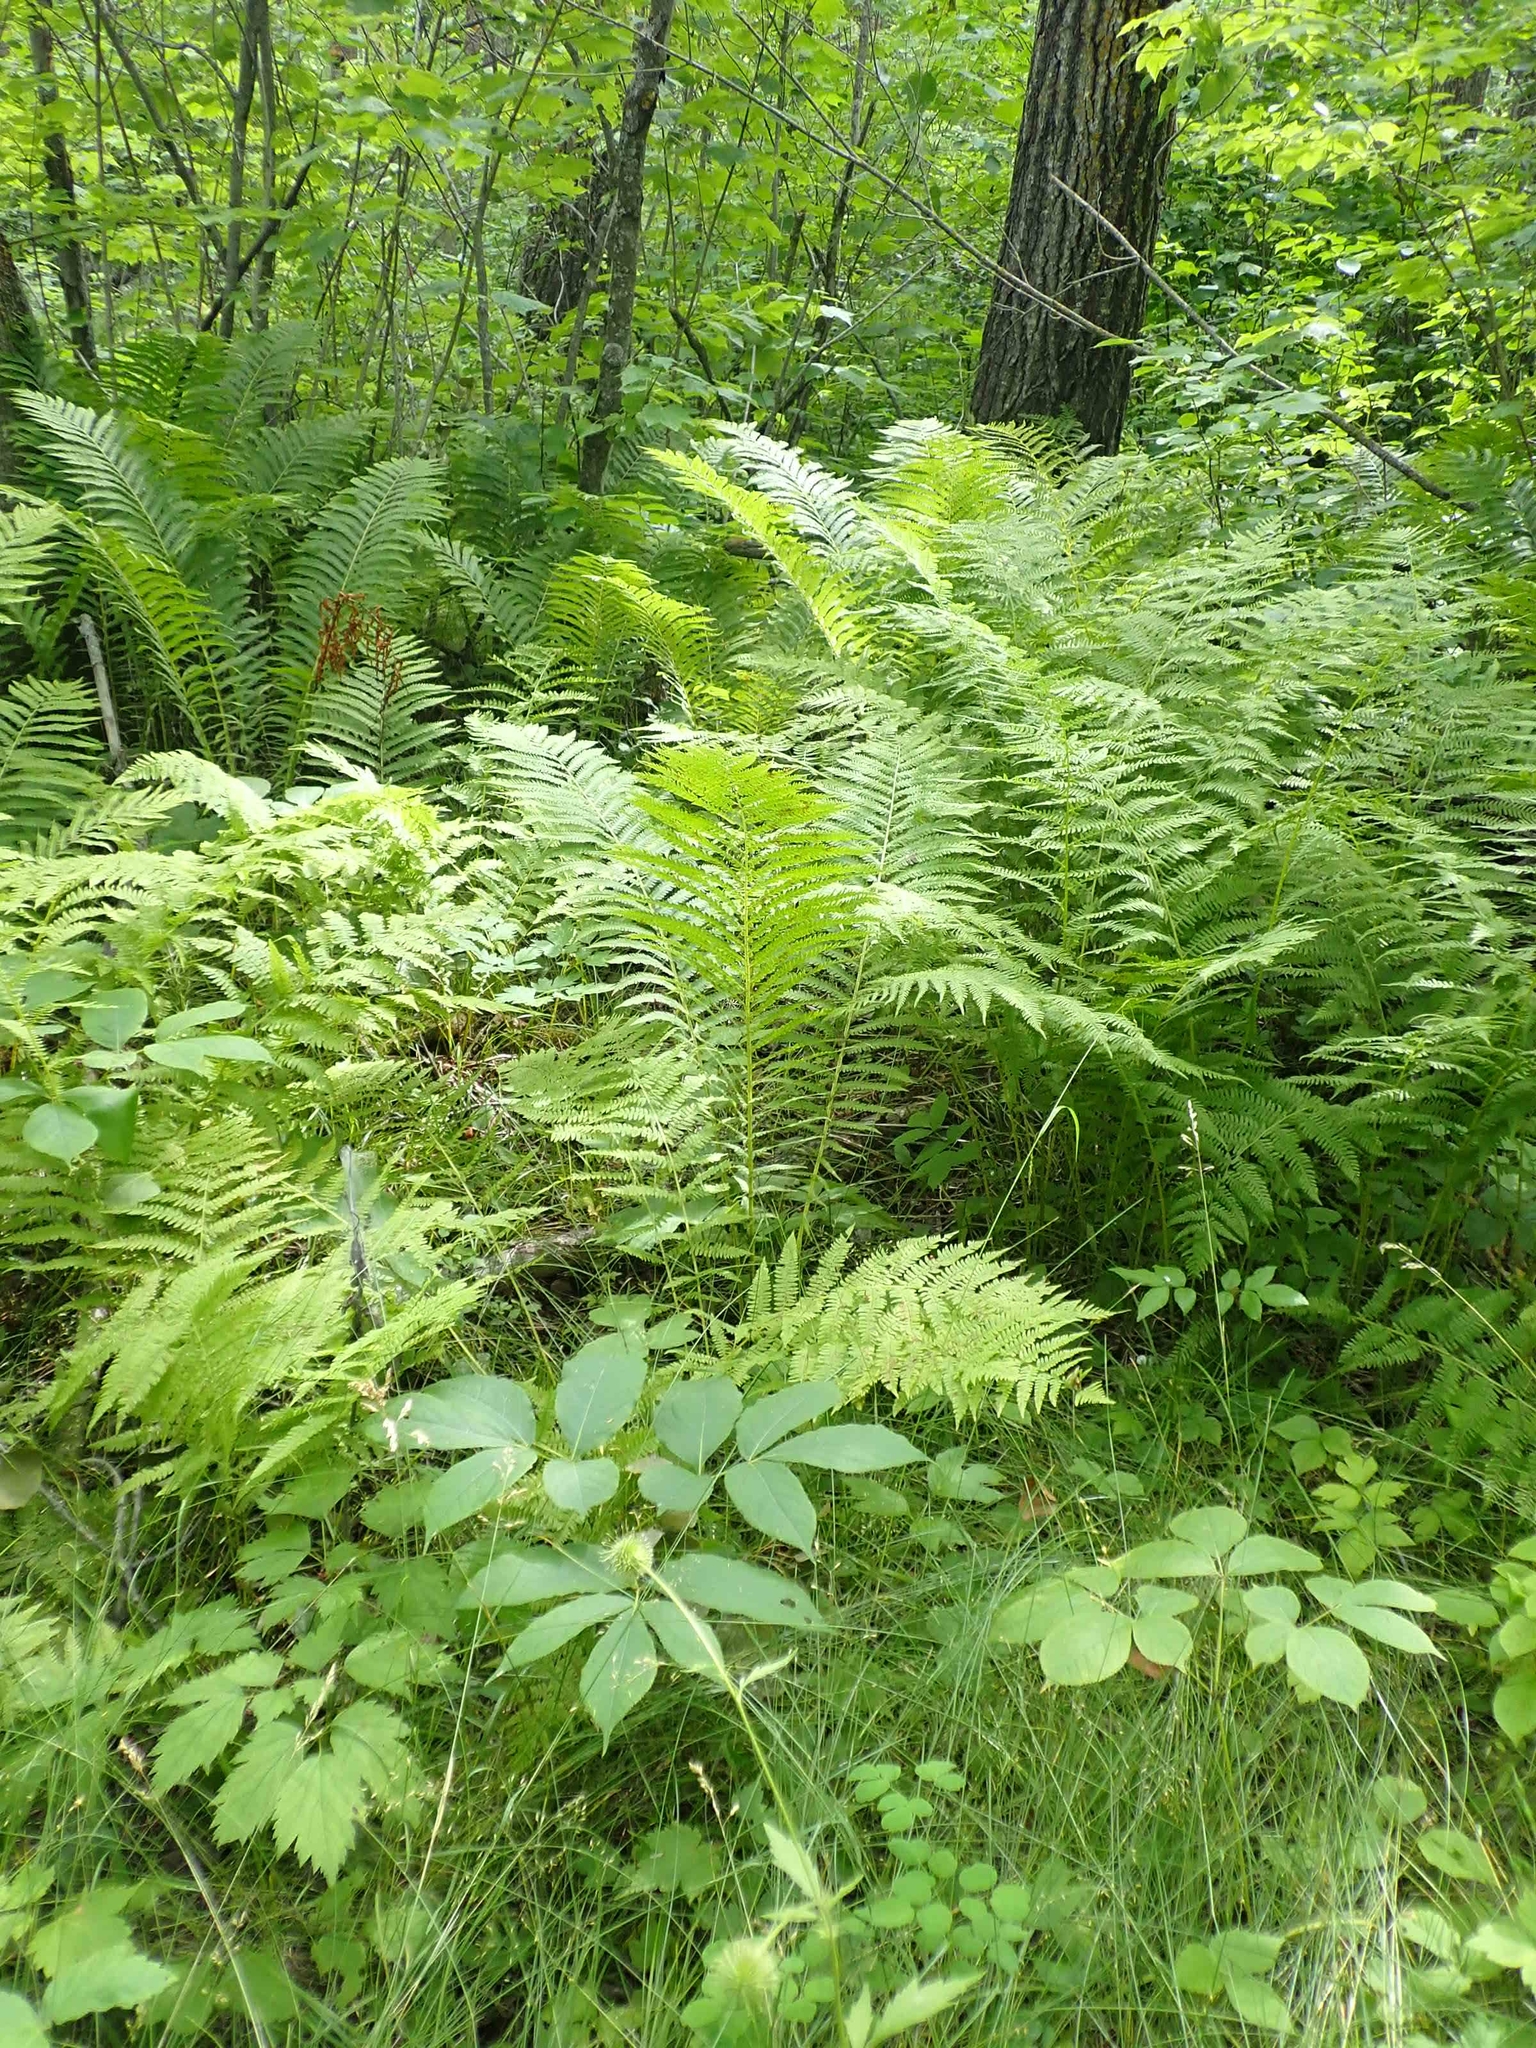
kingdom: Plantae
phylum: Tracheophyta
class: Polypodiopsida
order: Polypodiales
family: Onocleaceae
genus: Matteuccia
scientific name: Matteuccia struthiopteris
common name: Ostrich fern
